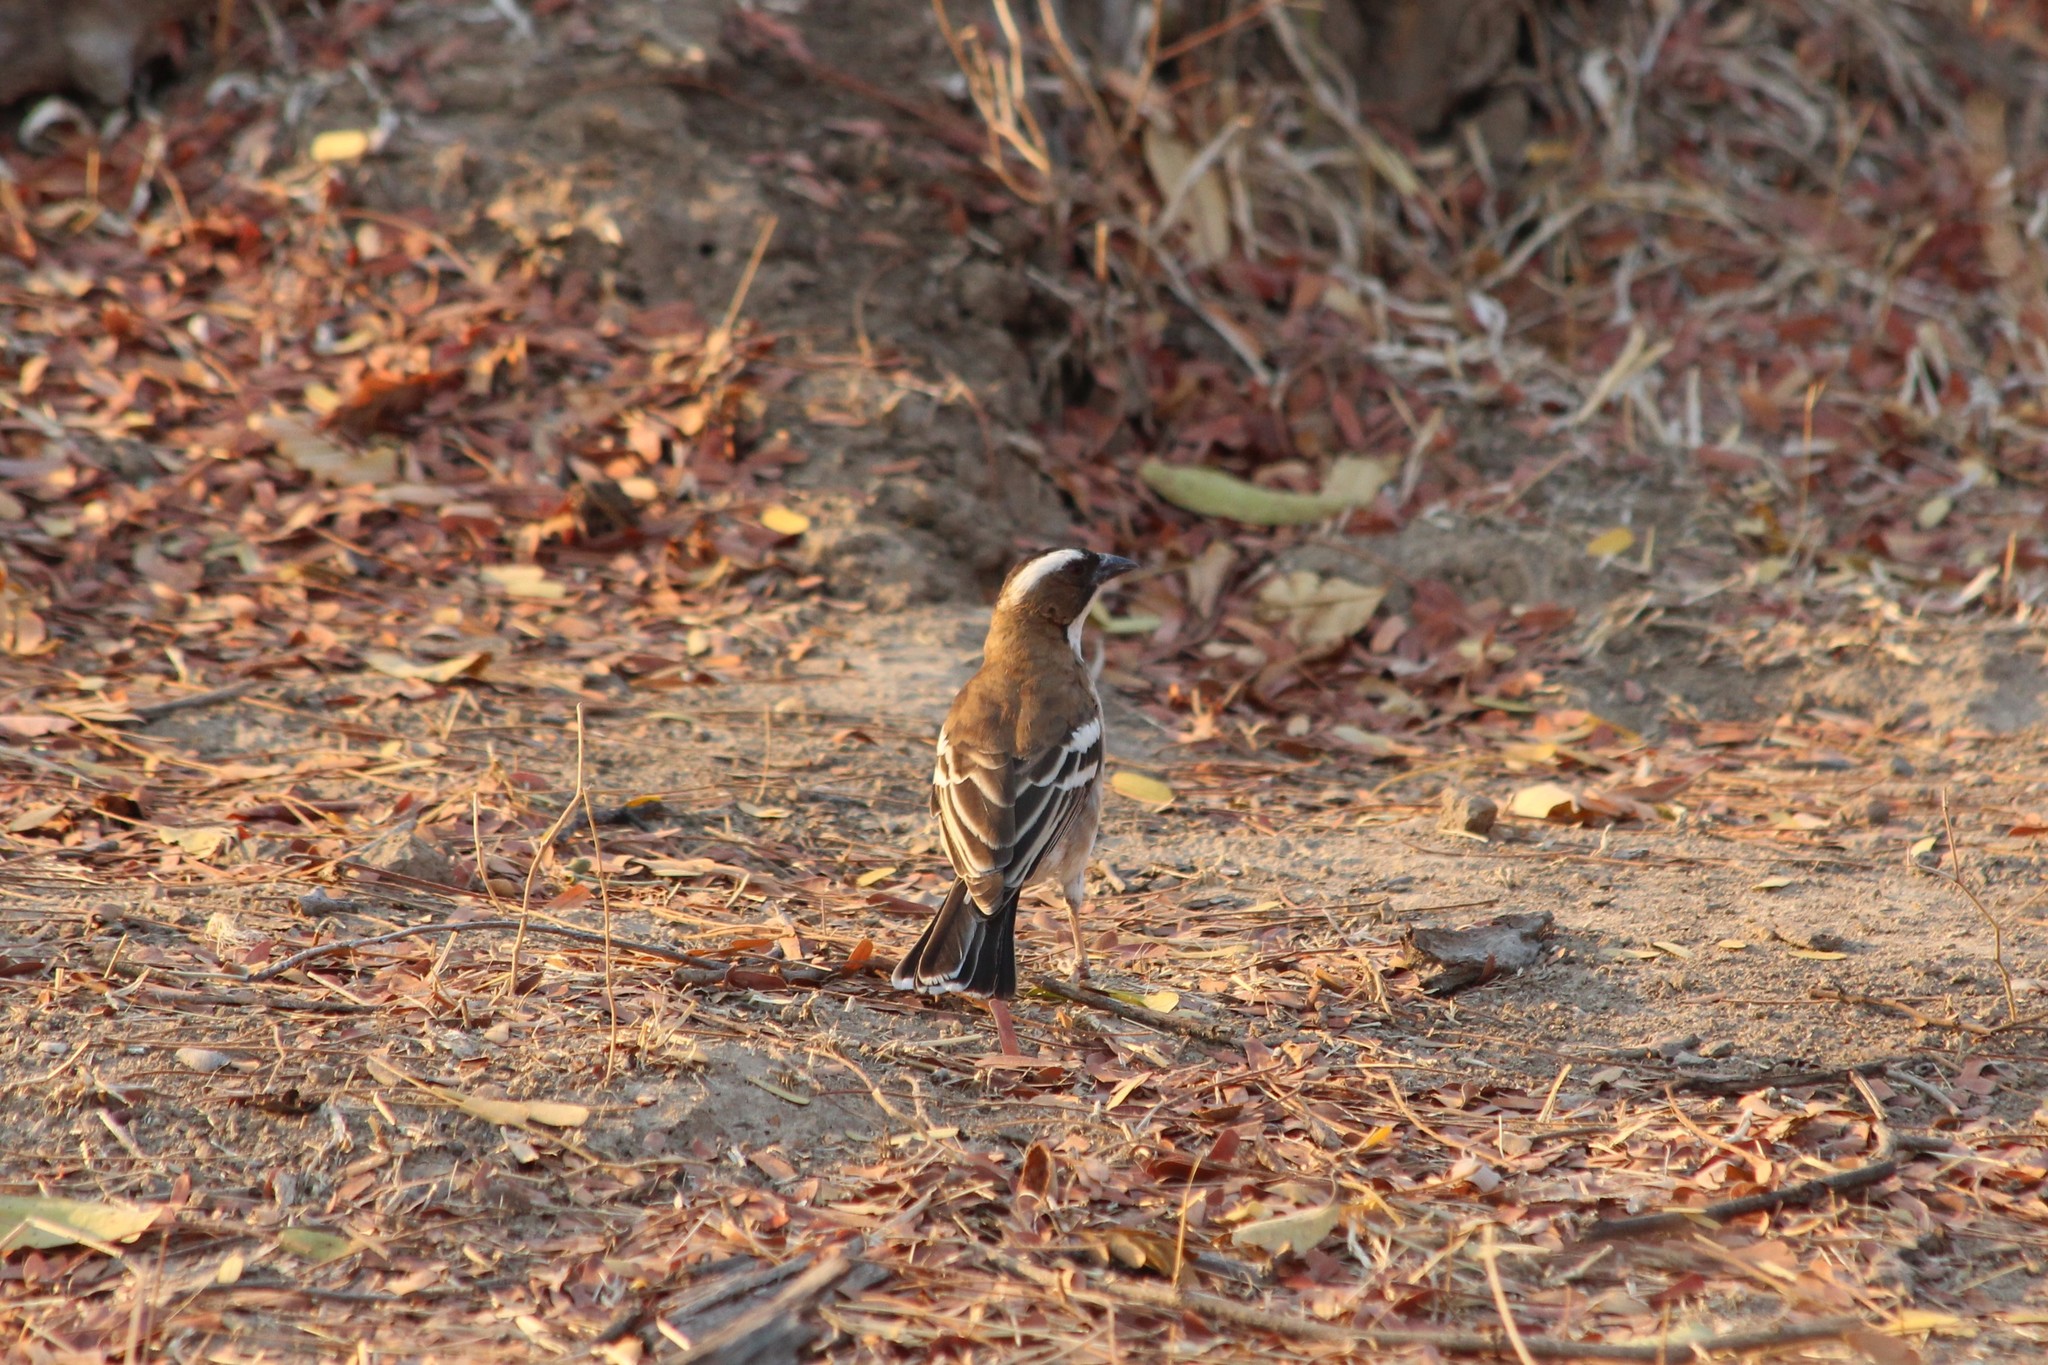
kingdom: Animalia
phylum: Chordata
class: Aves
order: Passeriformes
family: Passeridae
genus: Plocepasser
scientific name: Plocepasser mahali
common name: White-browed sparrow-weaver
